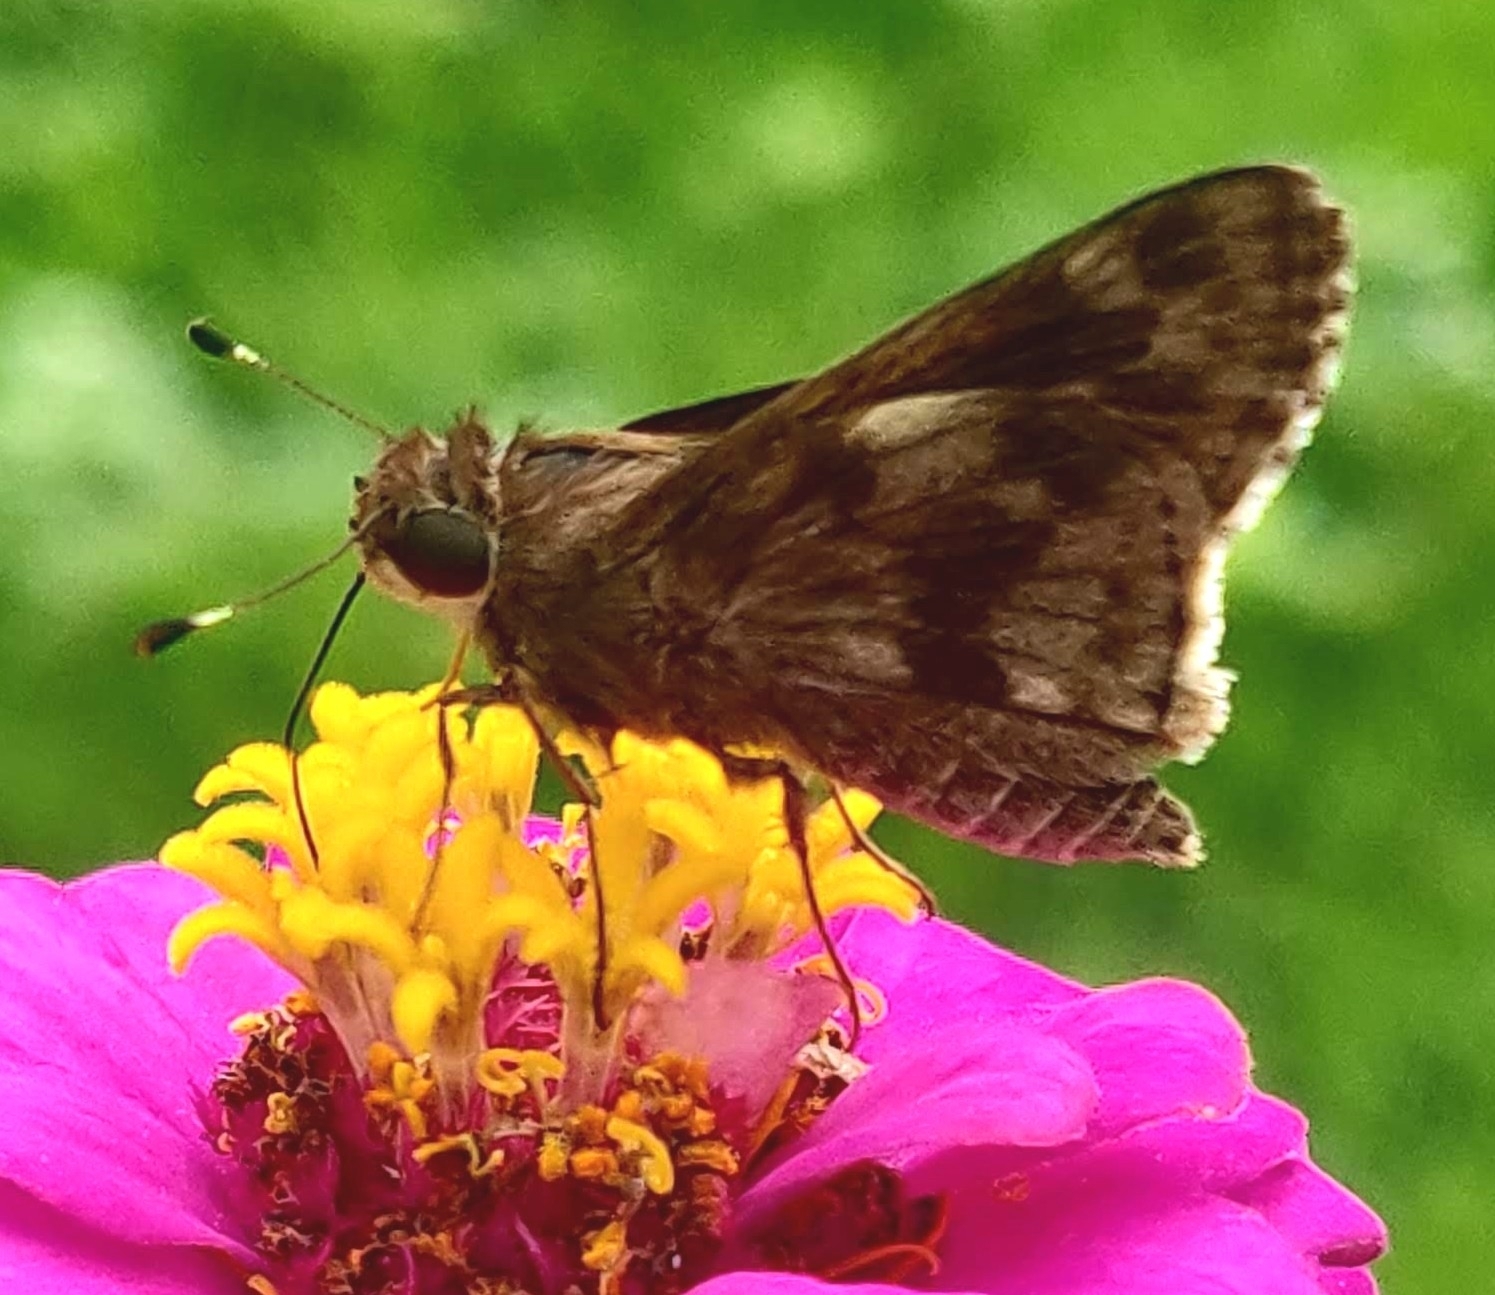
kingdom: Animalia
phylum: Arthropoda
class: Insecta
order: Lepidoptera
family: Hesperiidae
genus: Pompeius
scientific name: Pompeius pompeius
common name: Pompeius skipper
